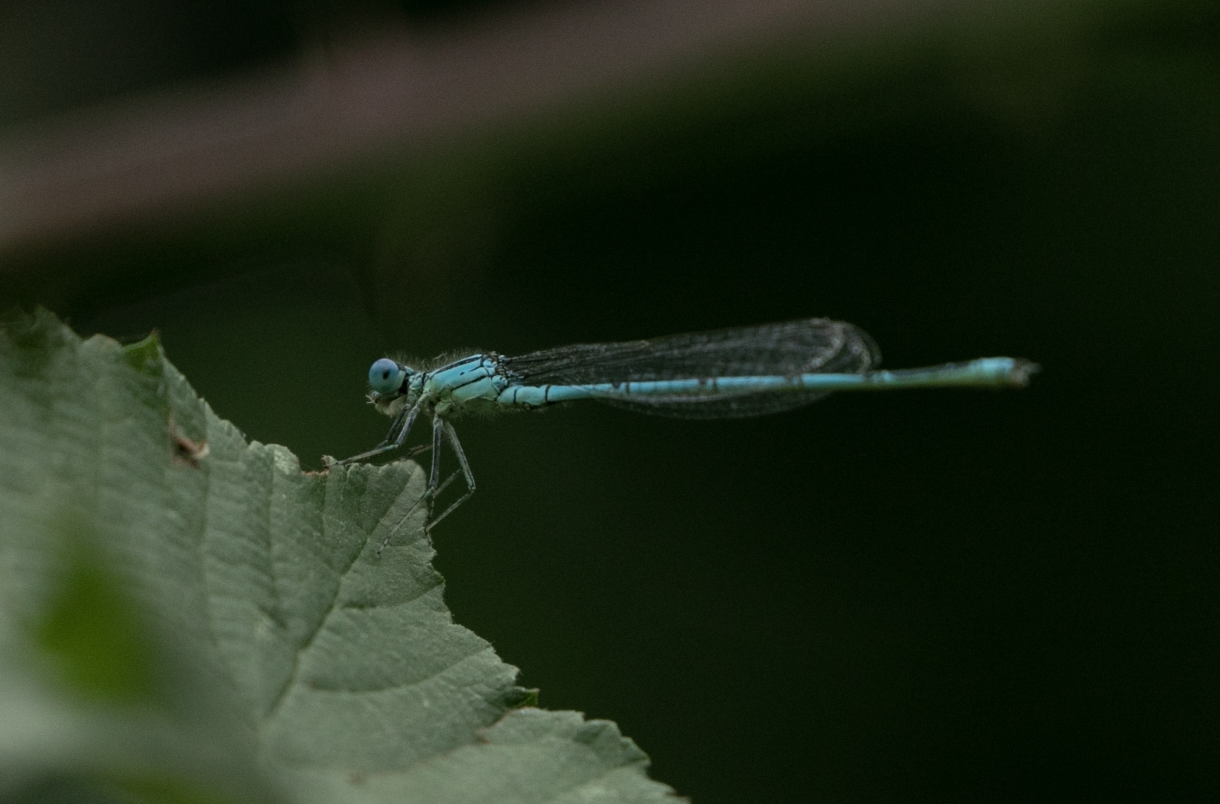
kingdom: Animalia
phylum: Arthropoda
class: Insecta
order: Odonata
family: Coenagrionidae
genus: Erythromma
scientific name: Erythromma lindenii
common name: Blue-eye
